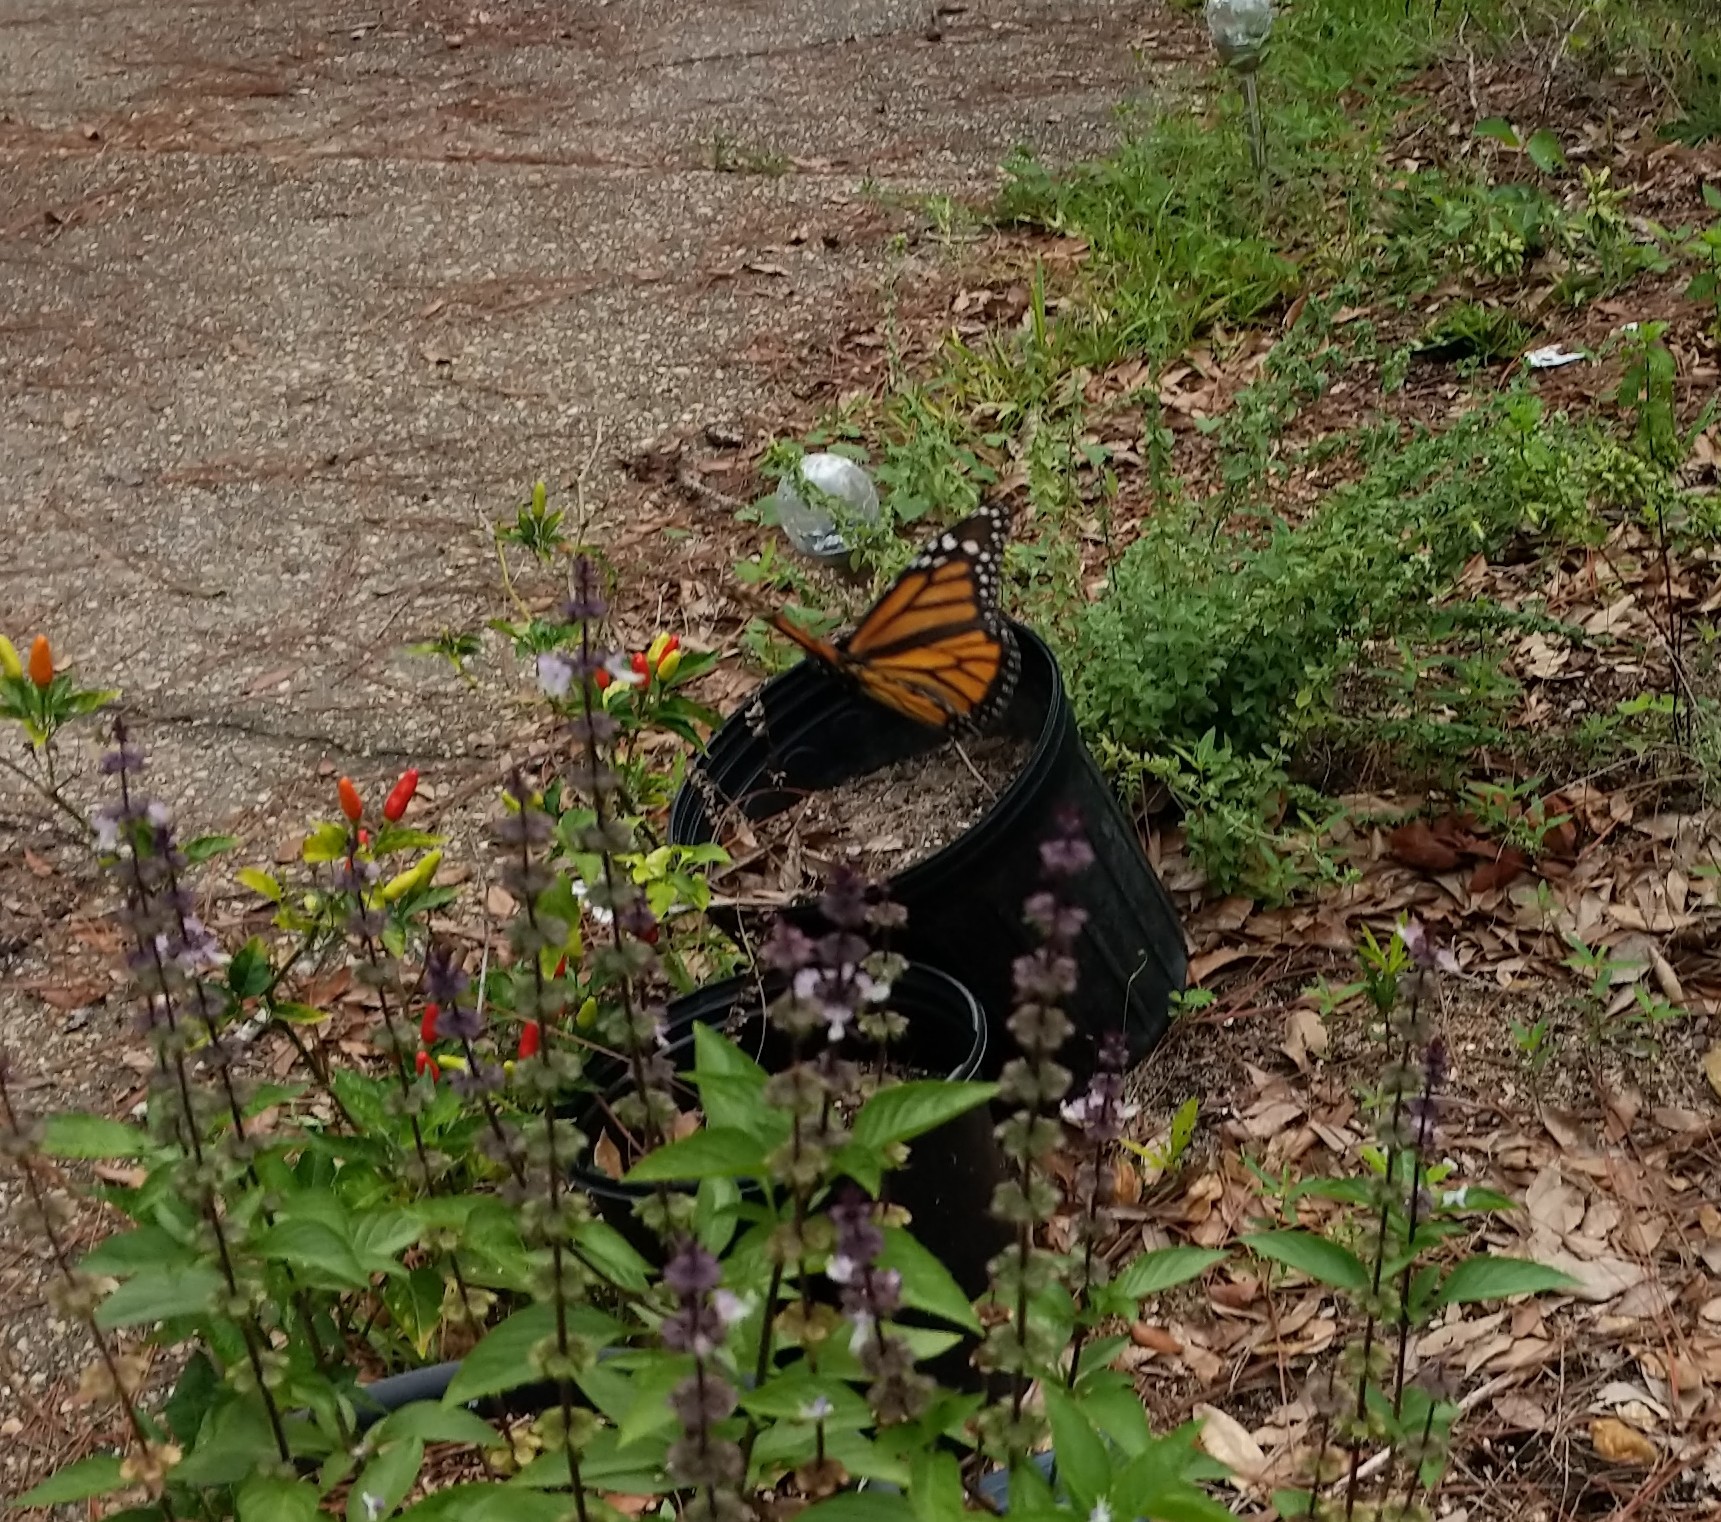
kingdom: Animalia
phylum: Arthropoda
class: Insecta
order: Lepidoptera
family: Nymphalidae
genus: Danaus
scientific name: Danaus plexippus
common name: Monarch
